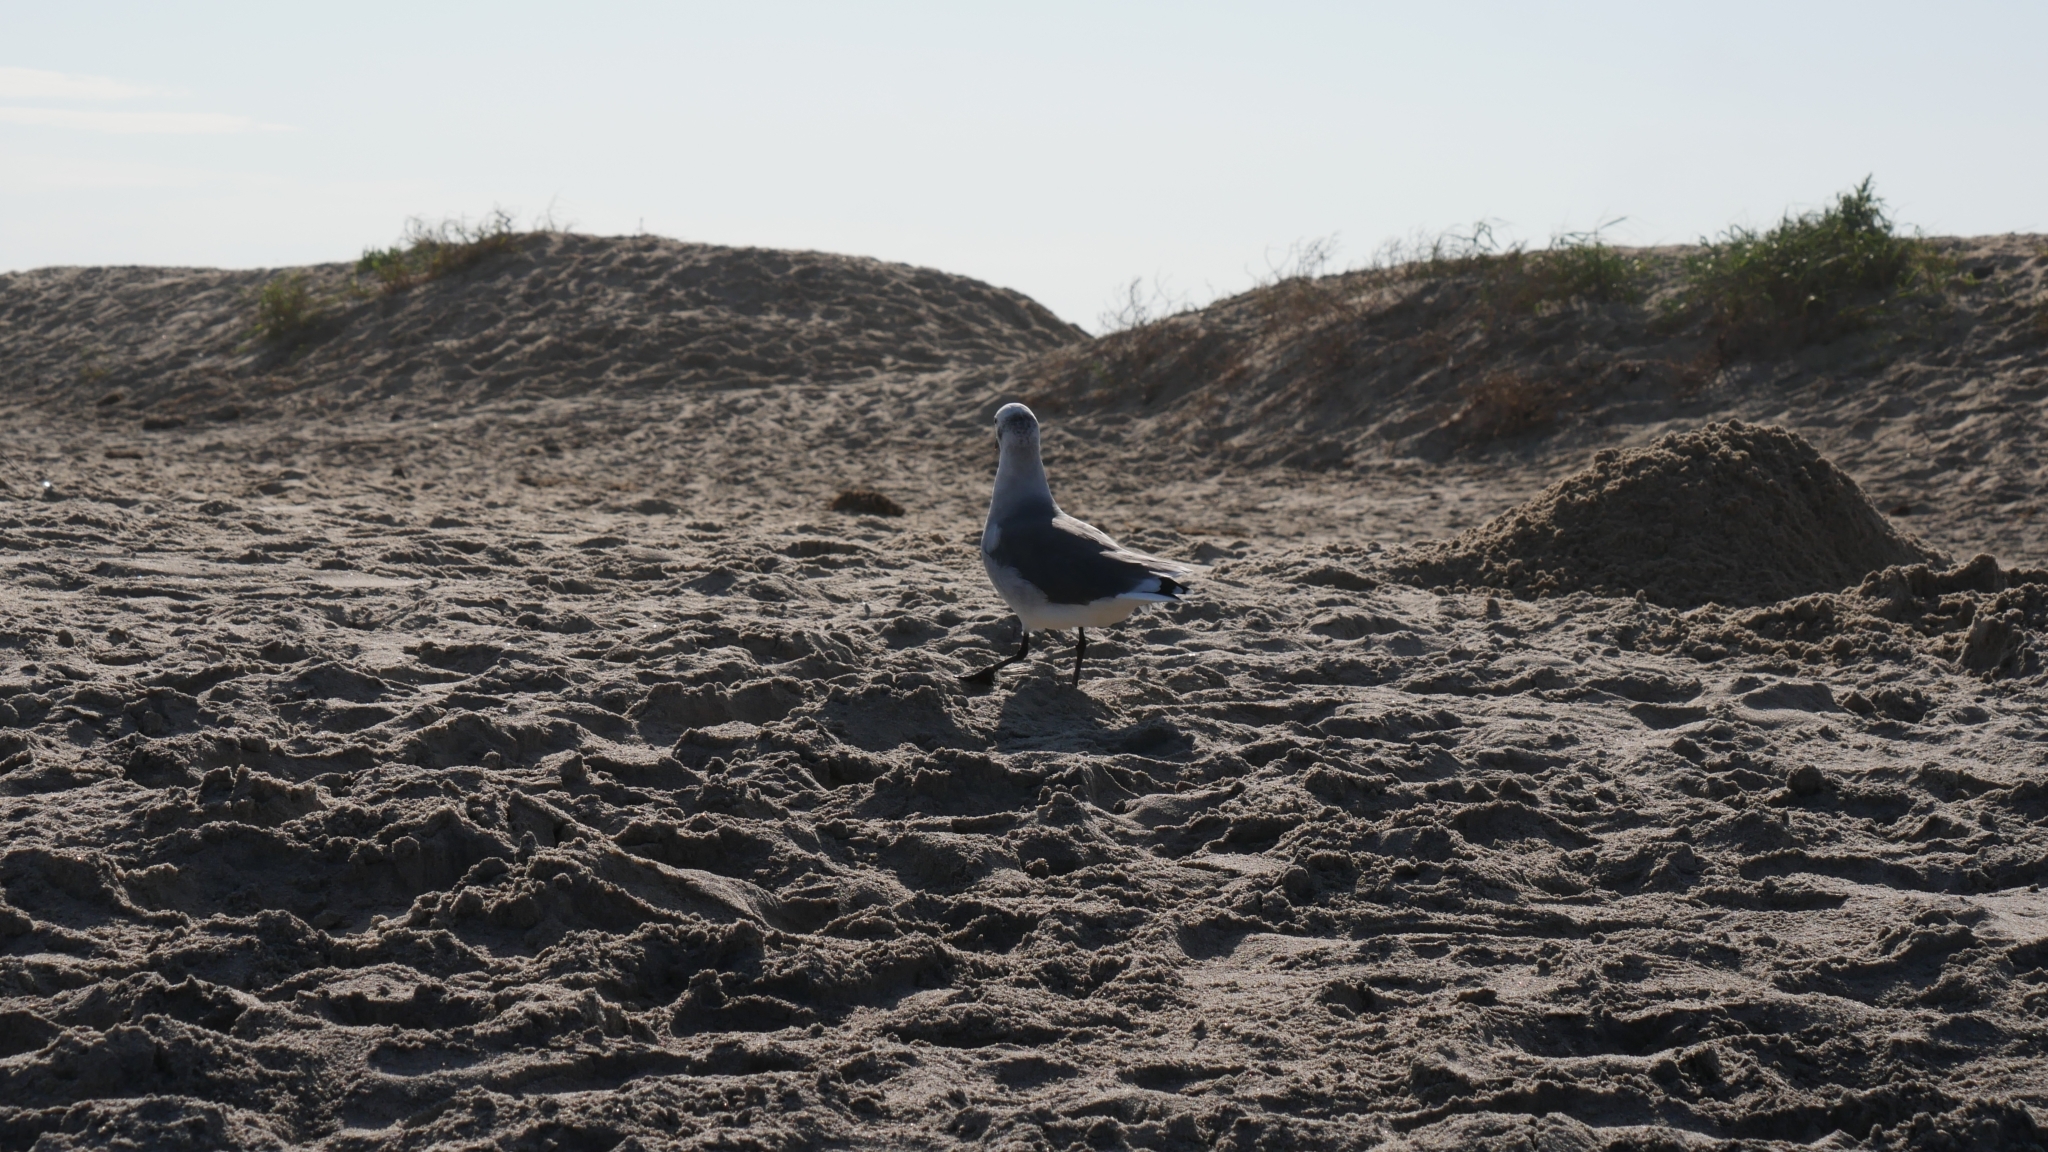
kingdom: Animalia
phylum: Chordata
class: Aves
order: Charadriiformes
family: Laridae
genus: Leucophaeus
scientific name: Leucophaeus atricilla
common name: Laughing gull
